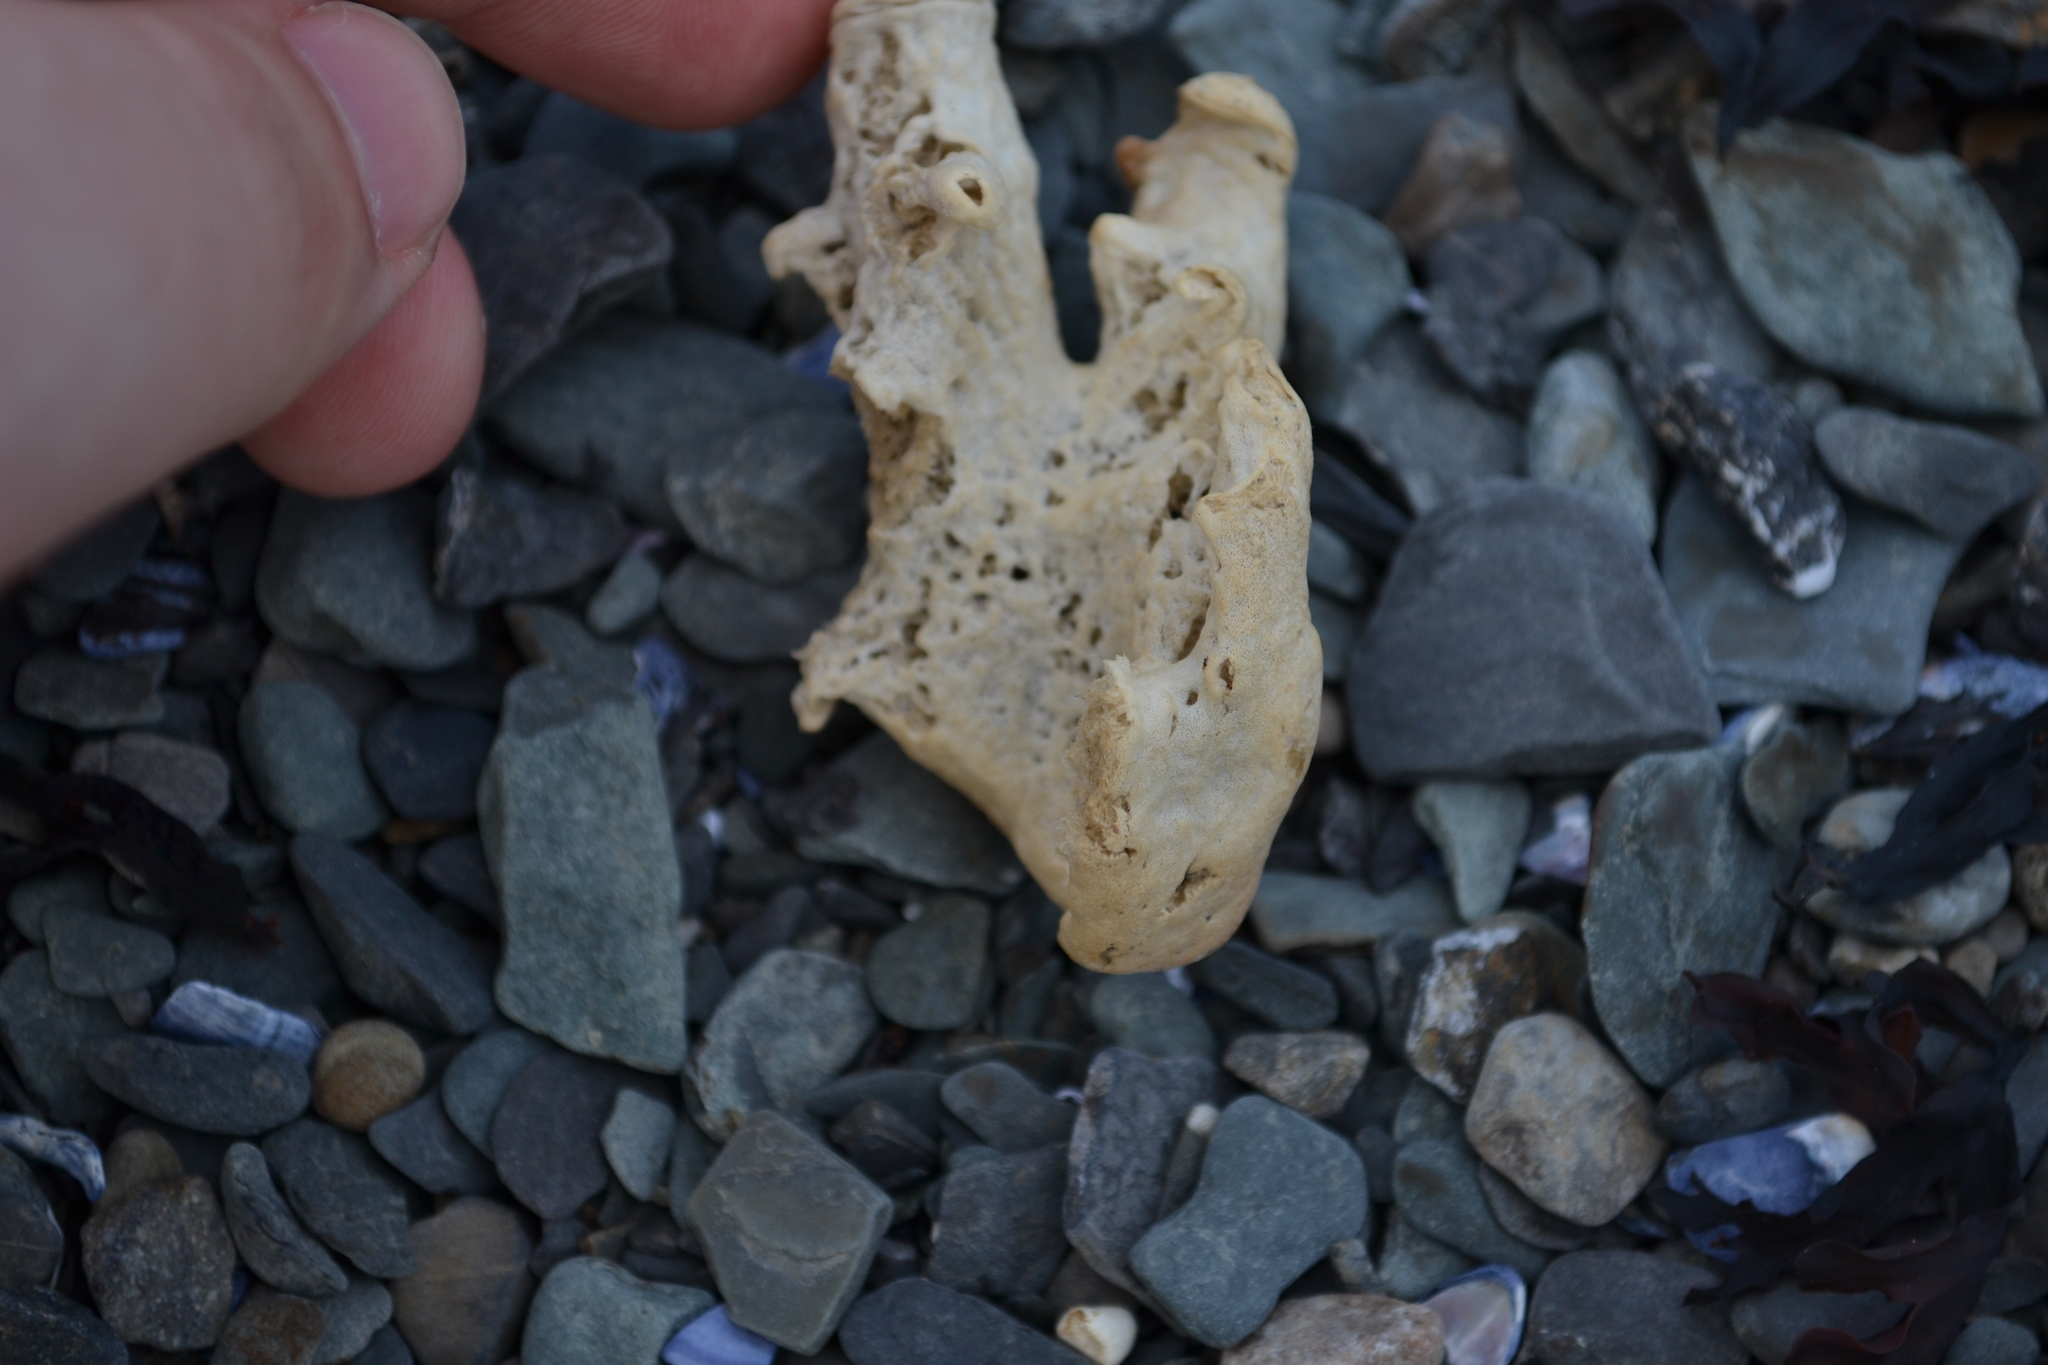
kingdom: Animalia
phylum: Porifera
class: Demospongiae
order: Suberitida
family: Halichondriidae
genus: Halichondria
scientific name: Halichondria panicea
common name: Breadcrumb sponge
